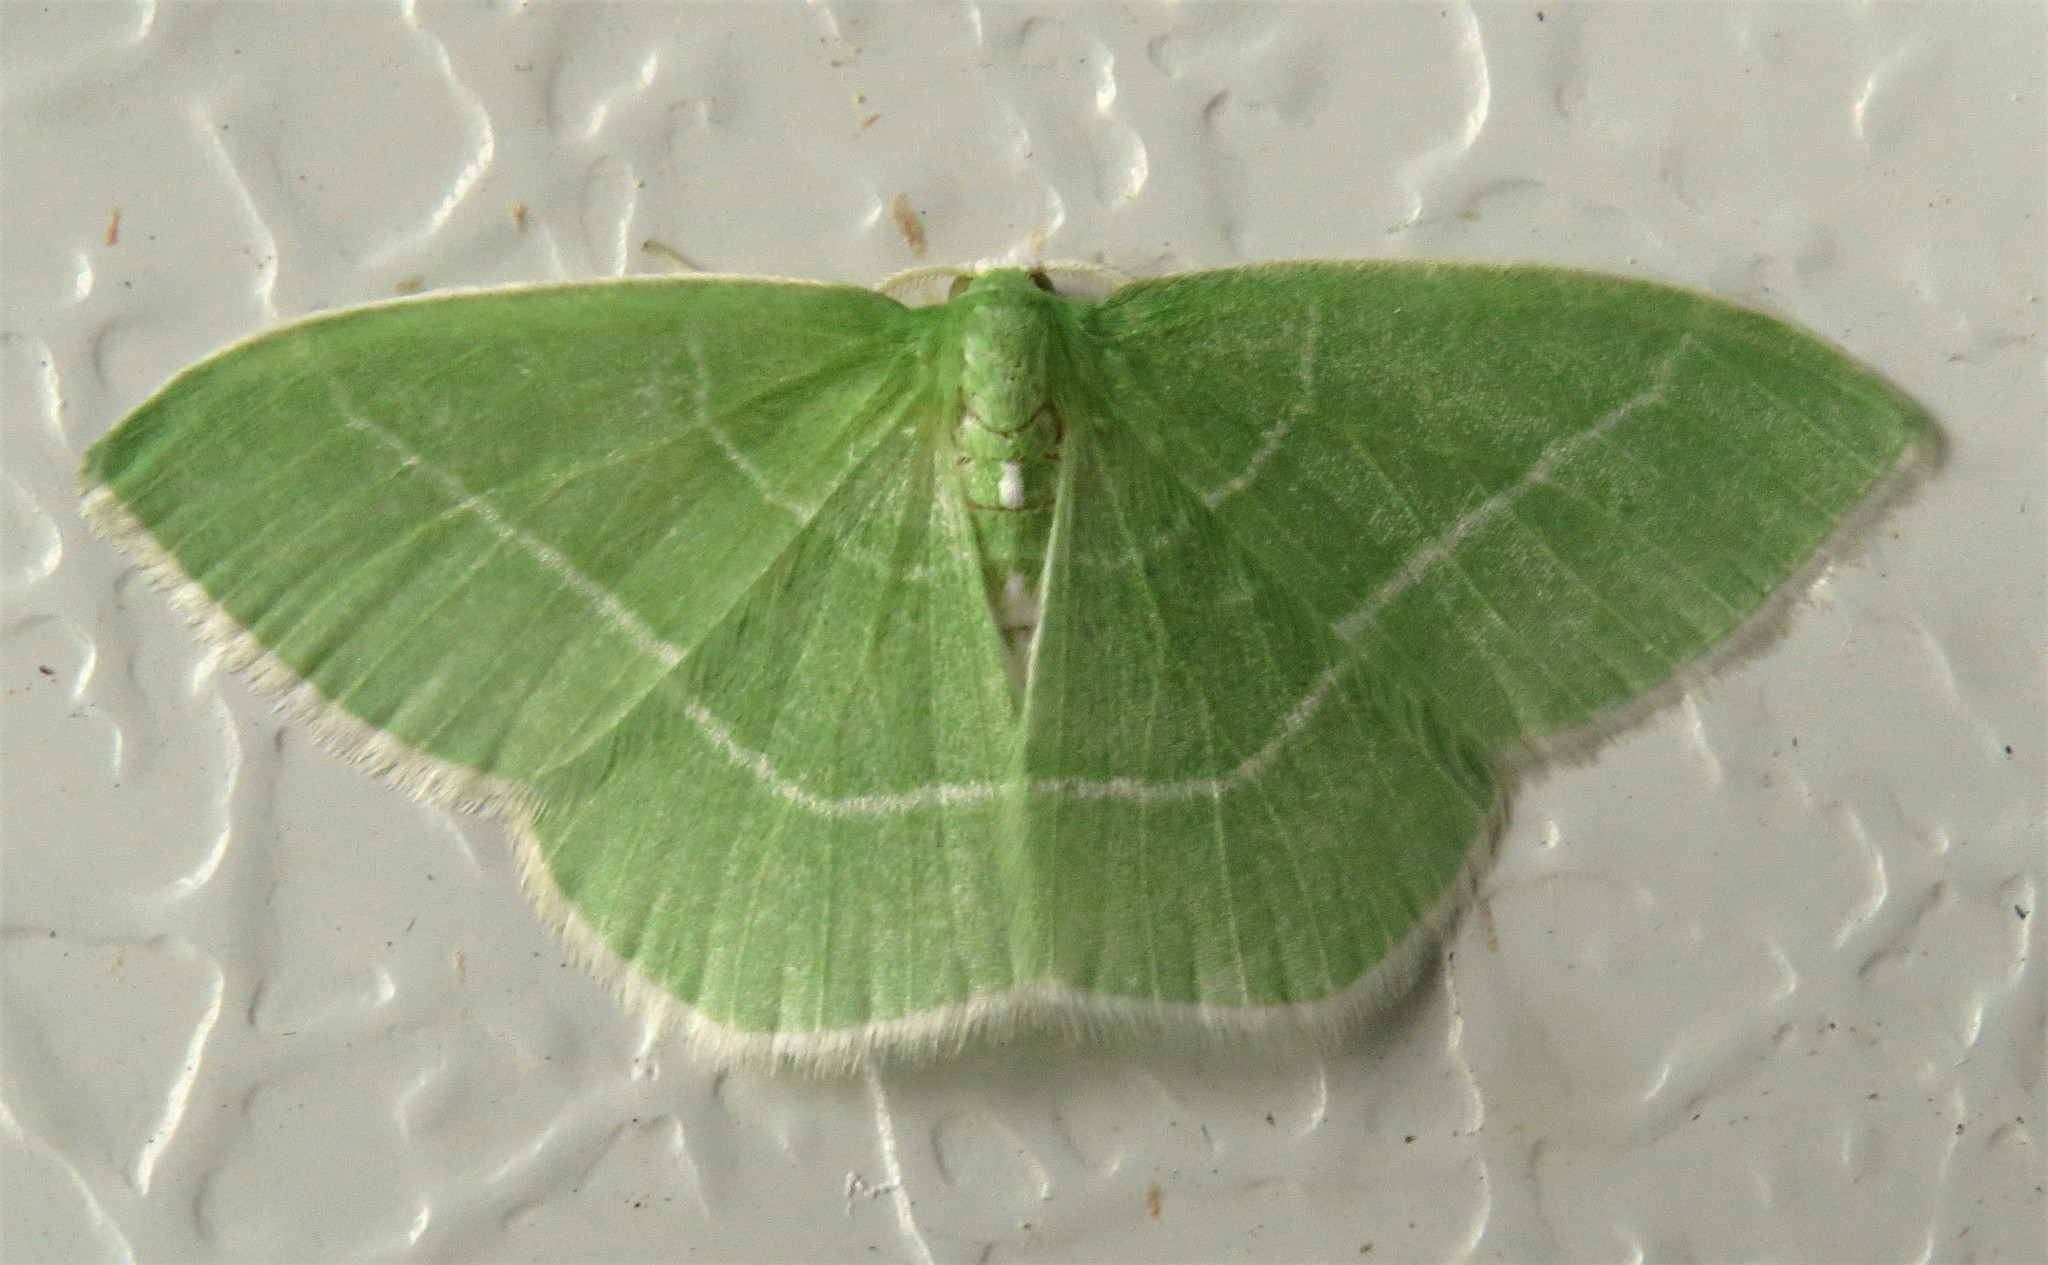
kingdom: Animalia
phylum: Arthropoda
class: Insecta
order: Lepidoptera
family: Geometridae
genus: Nemoria
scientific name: Nemoria mimosaria
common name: White-fringed emerald
